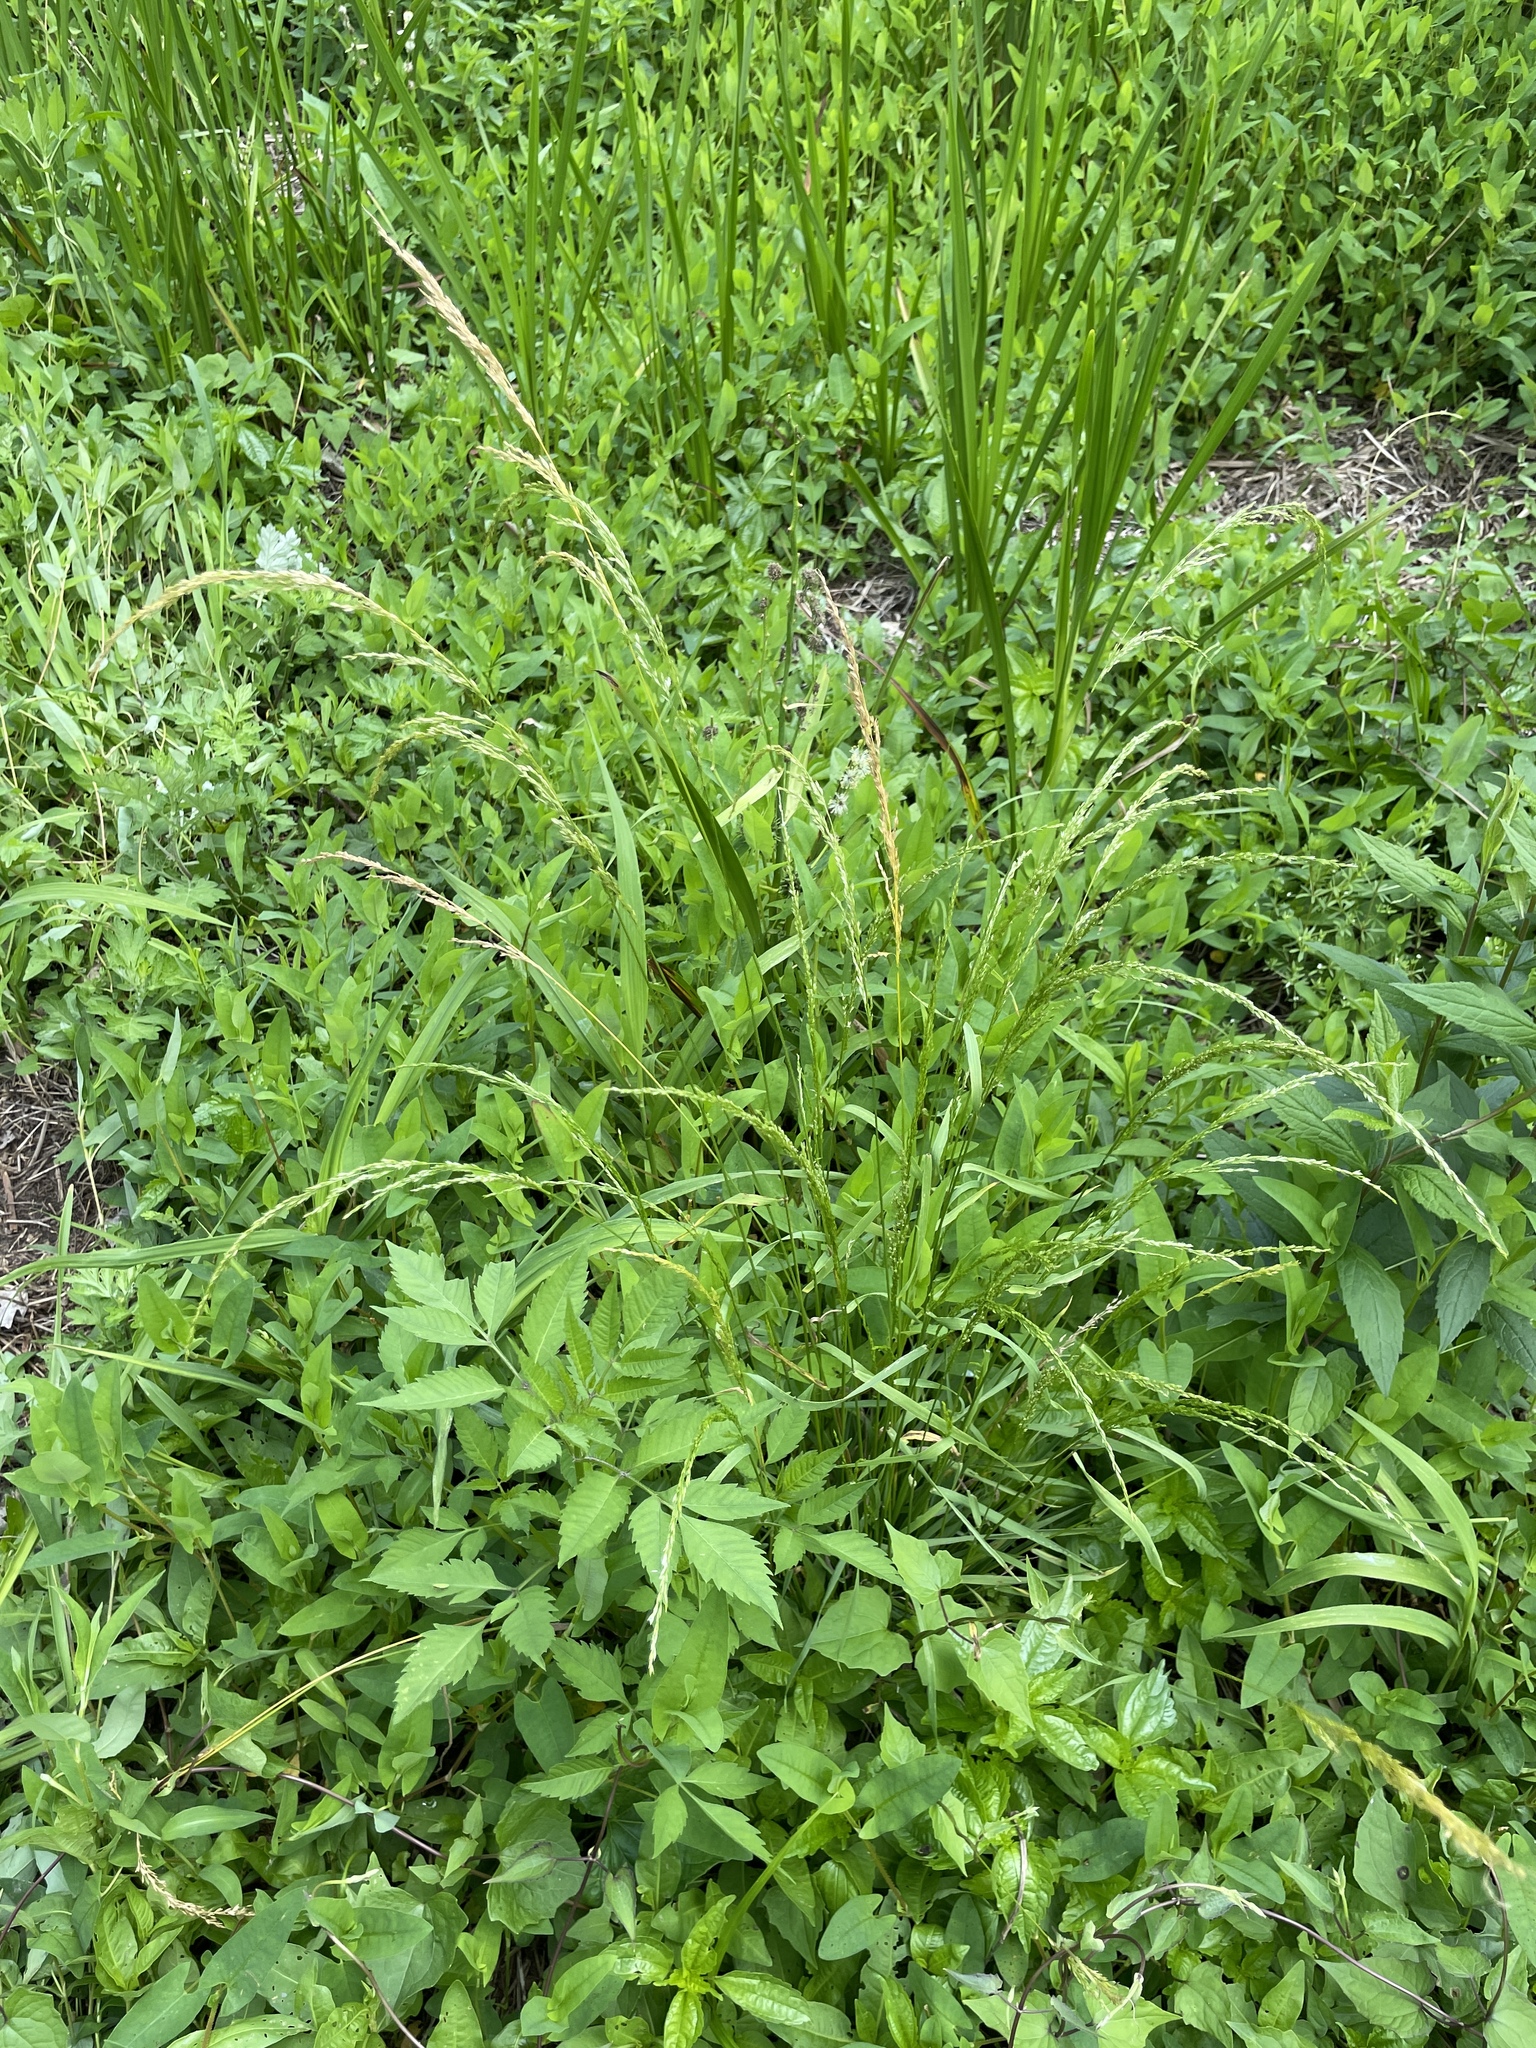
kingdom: Plantae
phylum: Tracheophyta
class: Liliopsida
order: Poales
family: Poaceae
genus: Sphenopholis
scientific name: Sphenopholis obtusata
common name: Prairie grass
